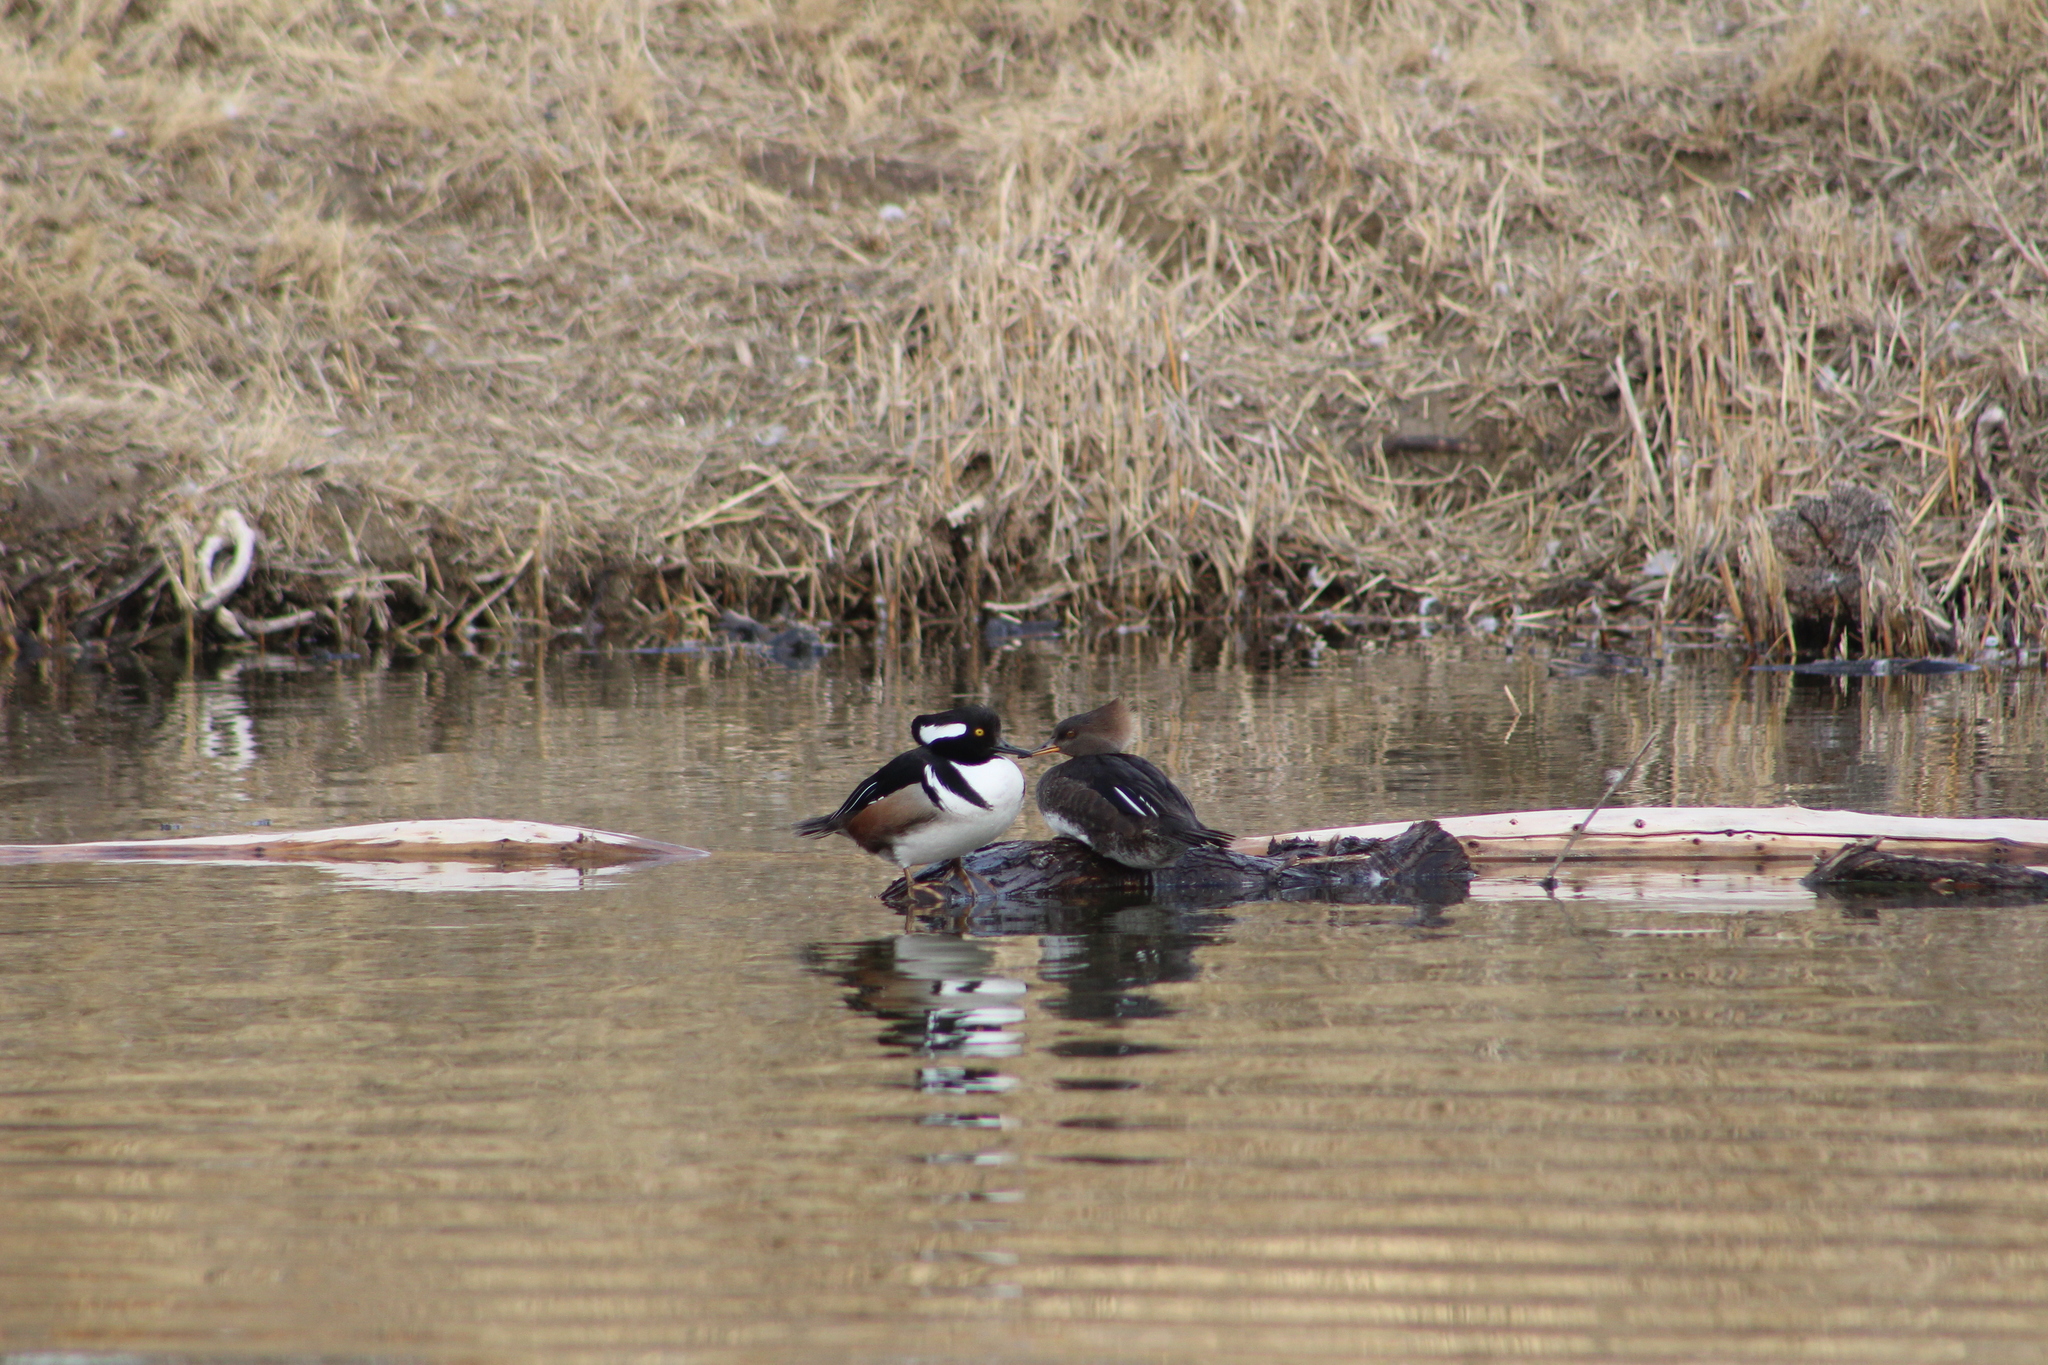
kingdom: Animalia
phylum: Chordata
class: Aves
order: Anseriformes
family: Anatidae
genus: Lophodytes
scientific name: Lophodytes cucullatus
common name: Hooded merganser
